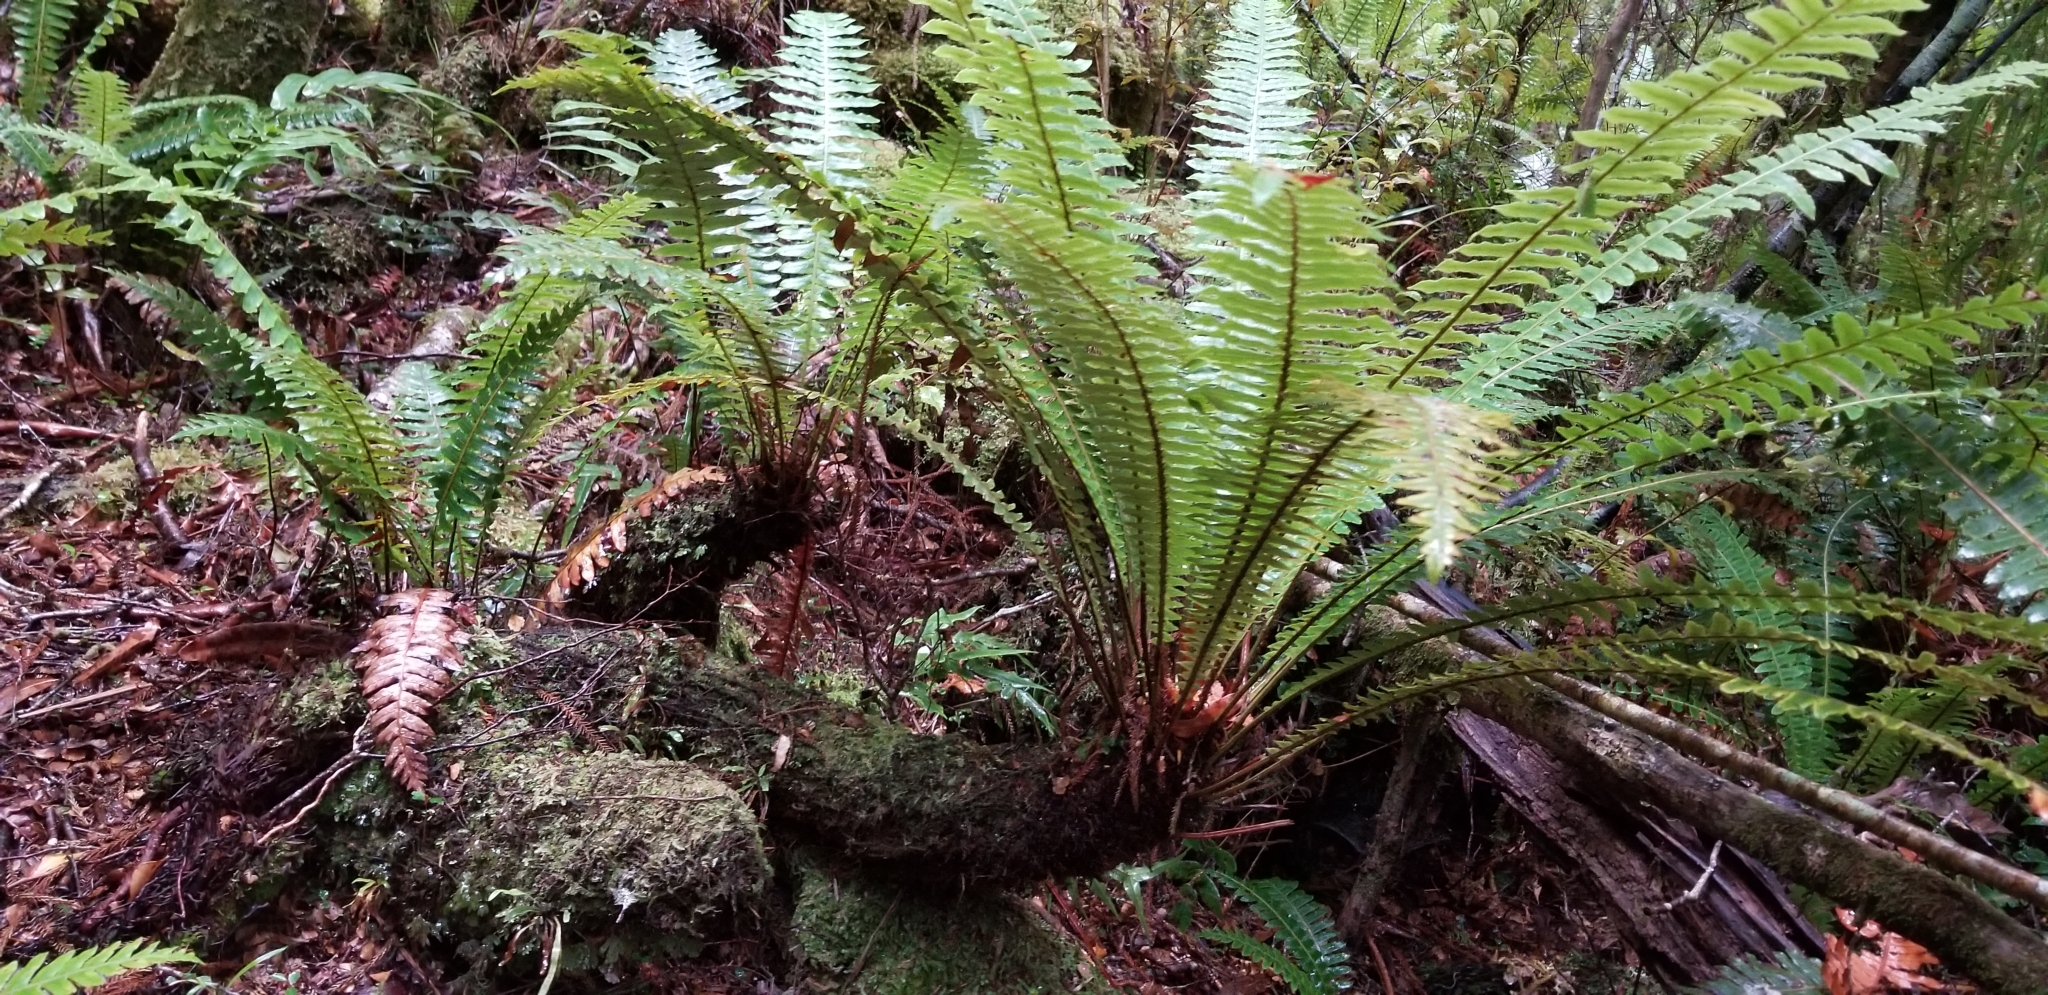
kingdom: Plantae
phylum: Tracheophyta
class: Polypodiopsida
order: Polypodiales
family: Blechnaceae
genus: Lomaria
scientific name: Lomaria discolor
